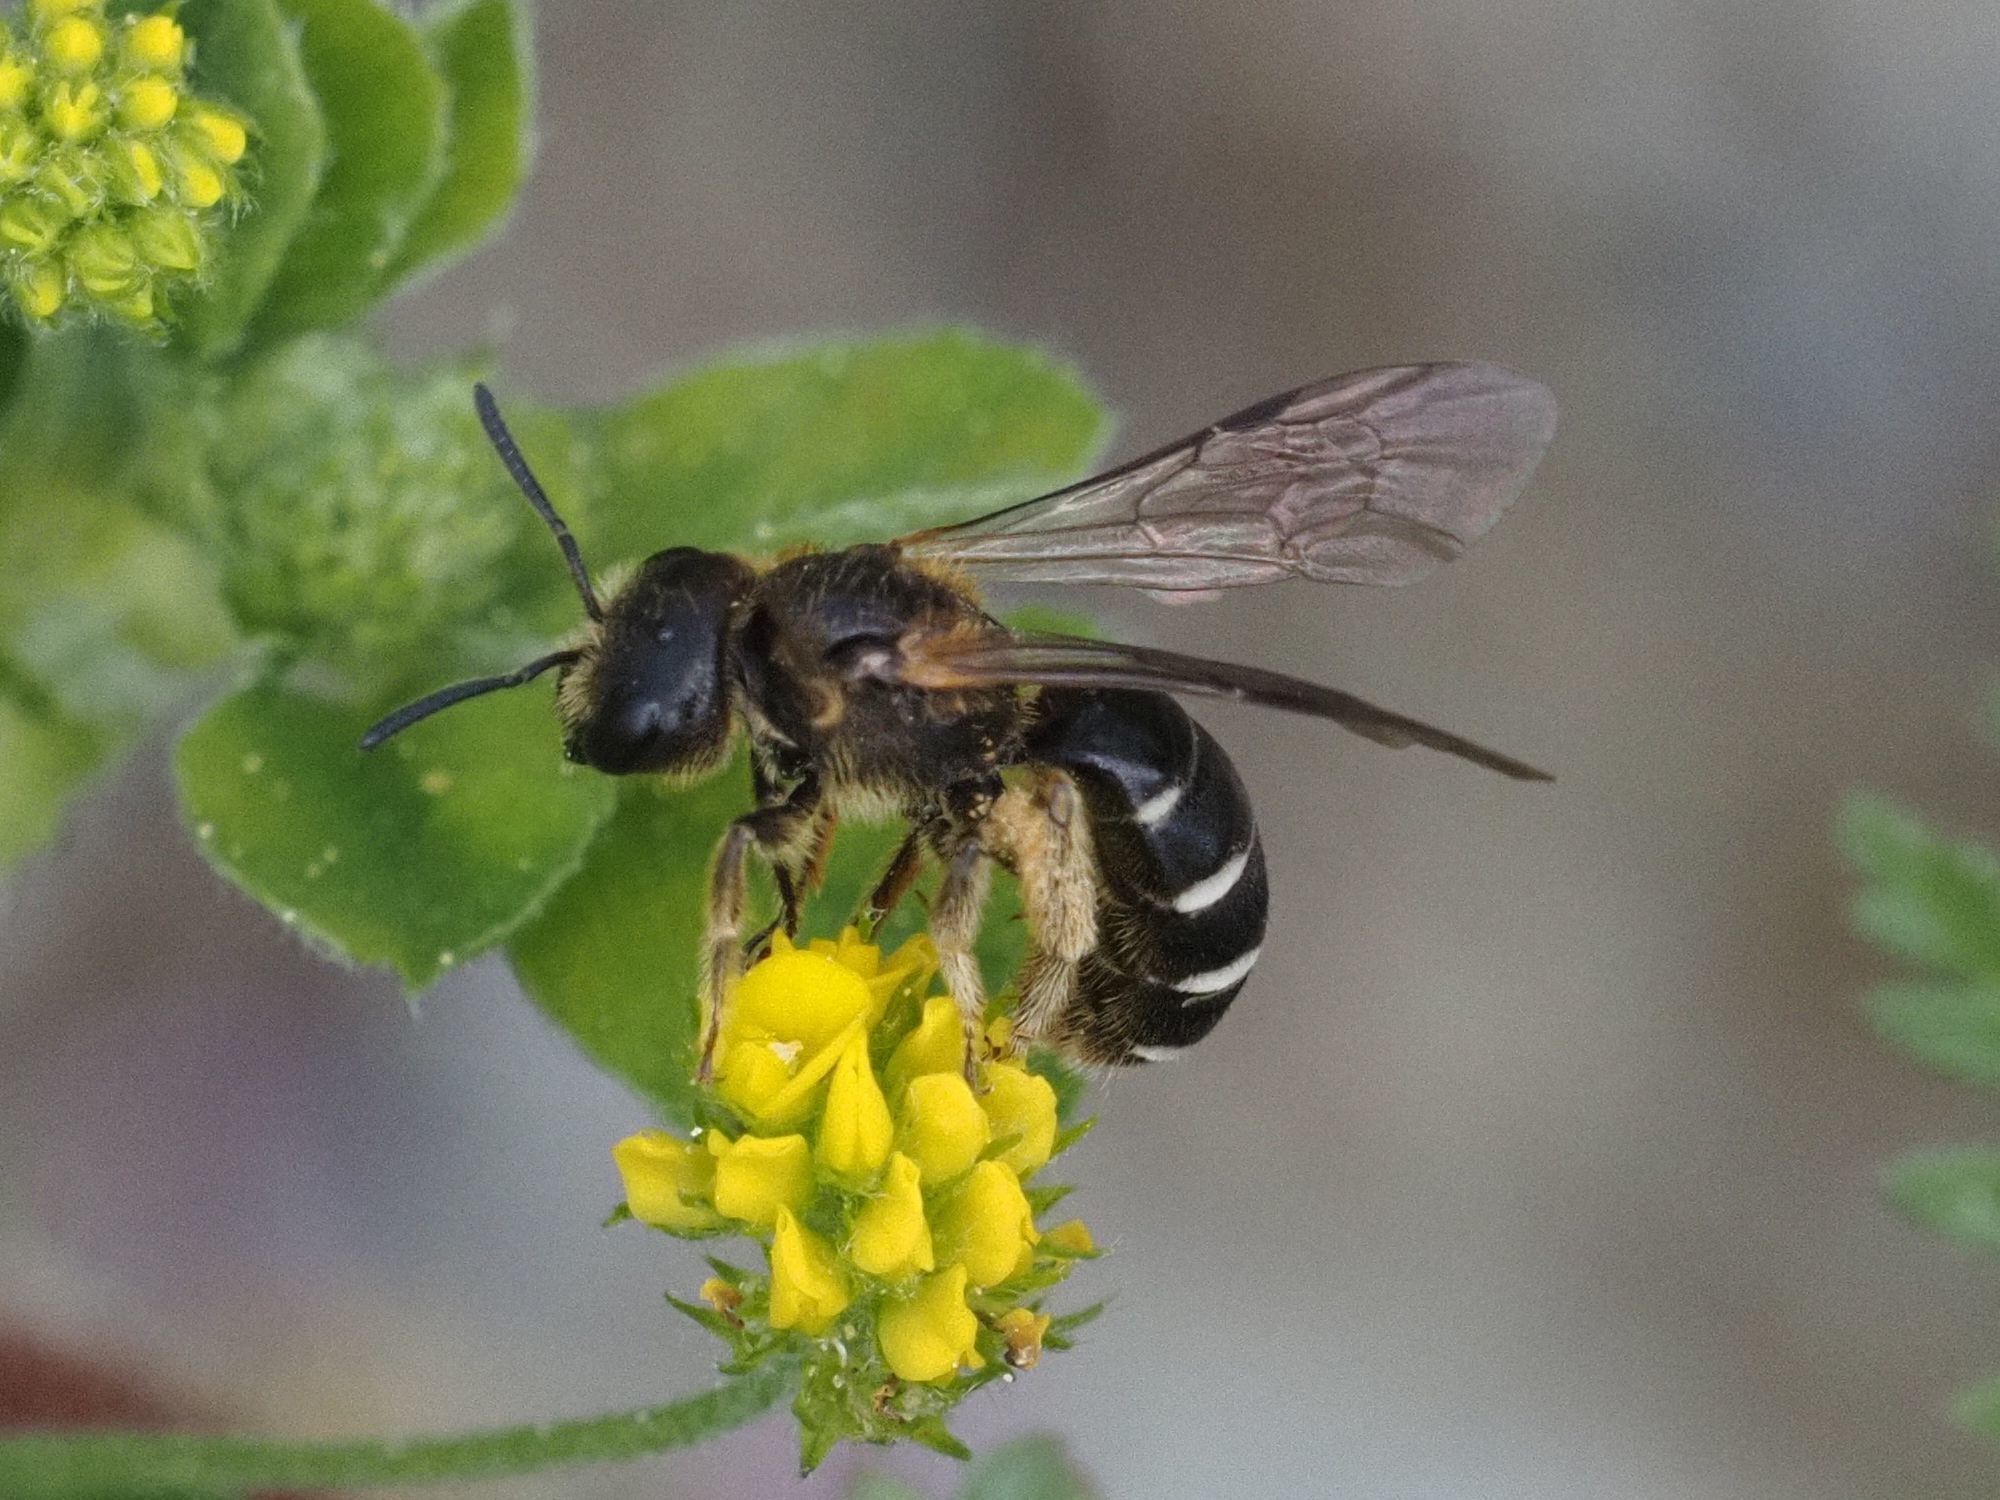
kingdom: Animalia
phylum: Arthropoda
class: Insecta
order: Hymenoptera
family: Halictidae
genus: Halictus
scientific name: Halictus maculatus
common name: Box-heades furrow bee
